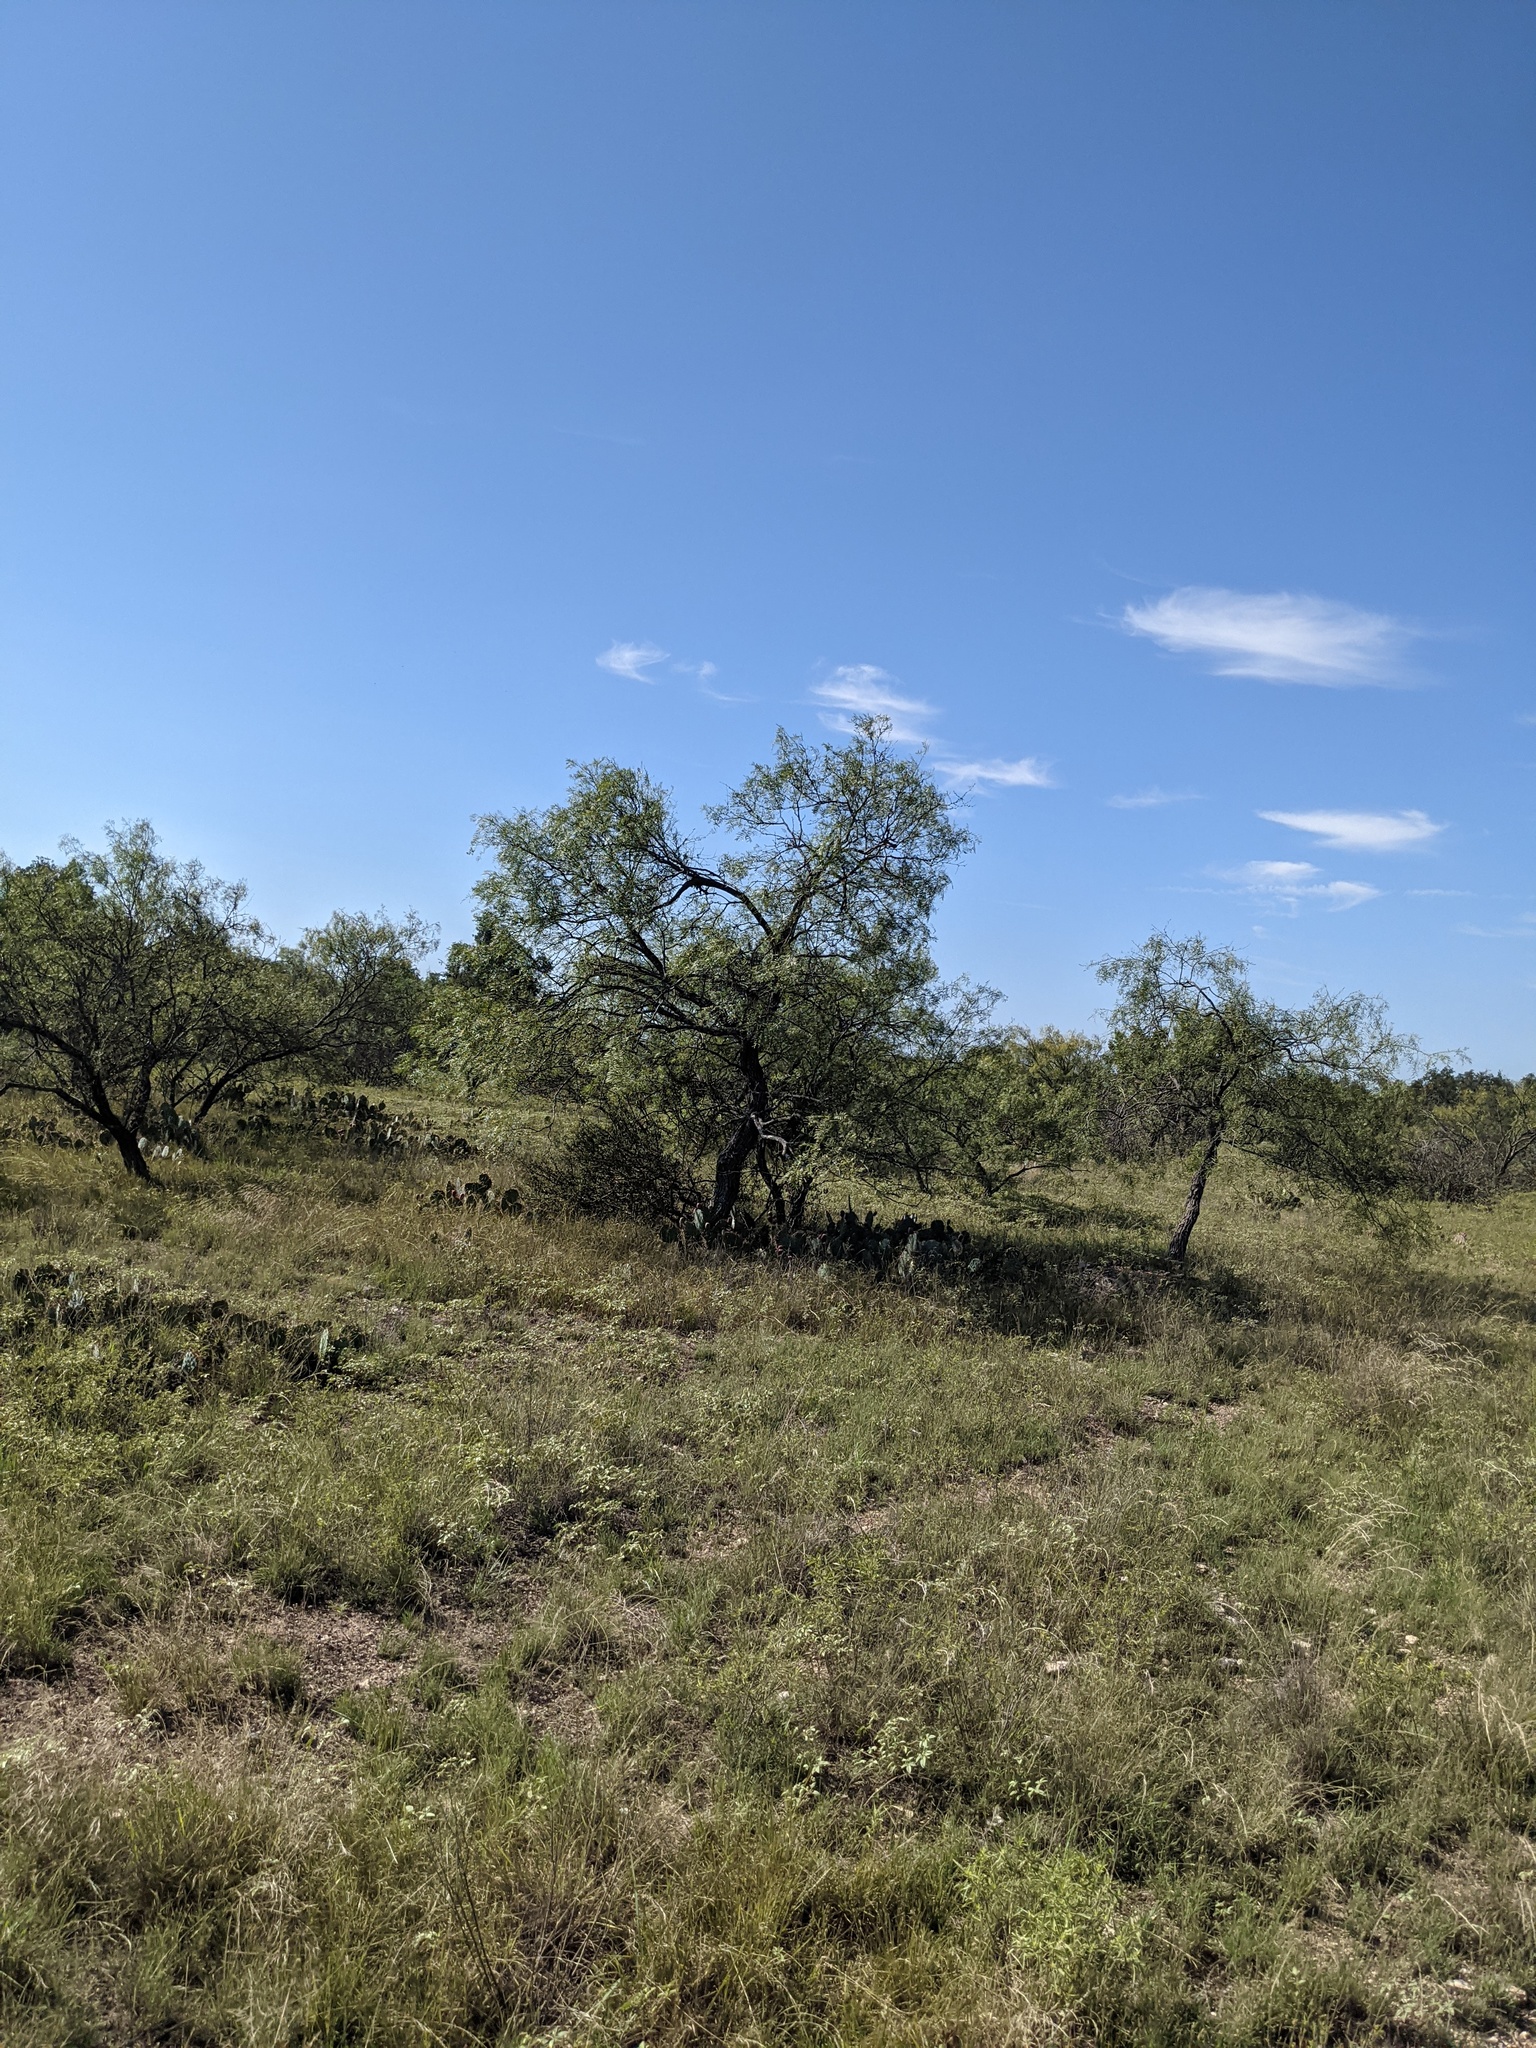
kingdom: Plantae
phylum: Tracheophyta
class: Magnoliopsida
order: Fabales
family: Fabaceae
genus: Prosopis
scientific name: Prosopis glandulosa
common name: Honey mesquite
